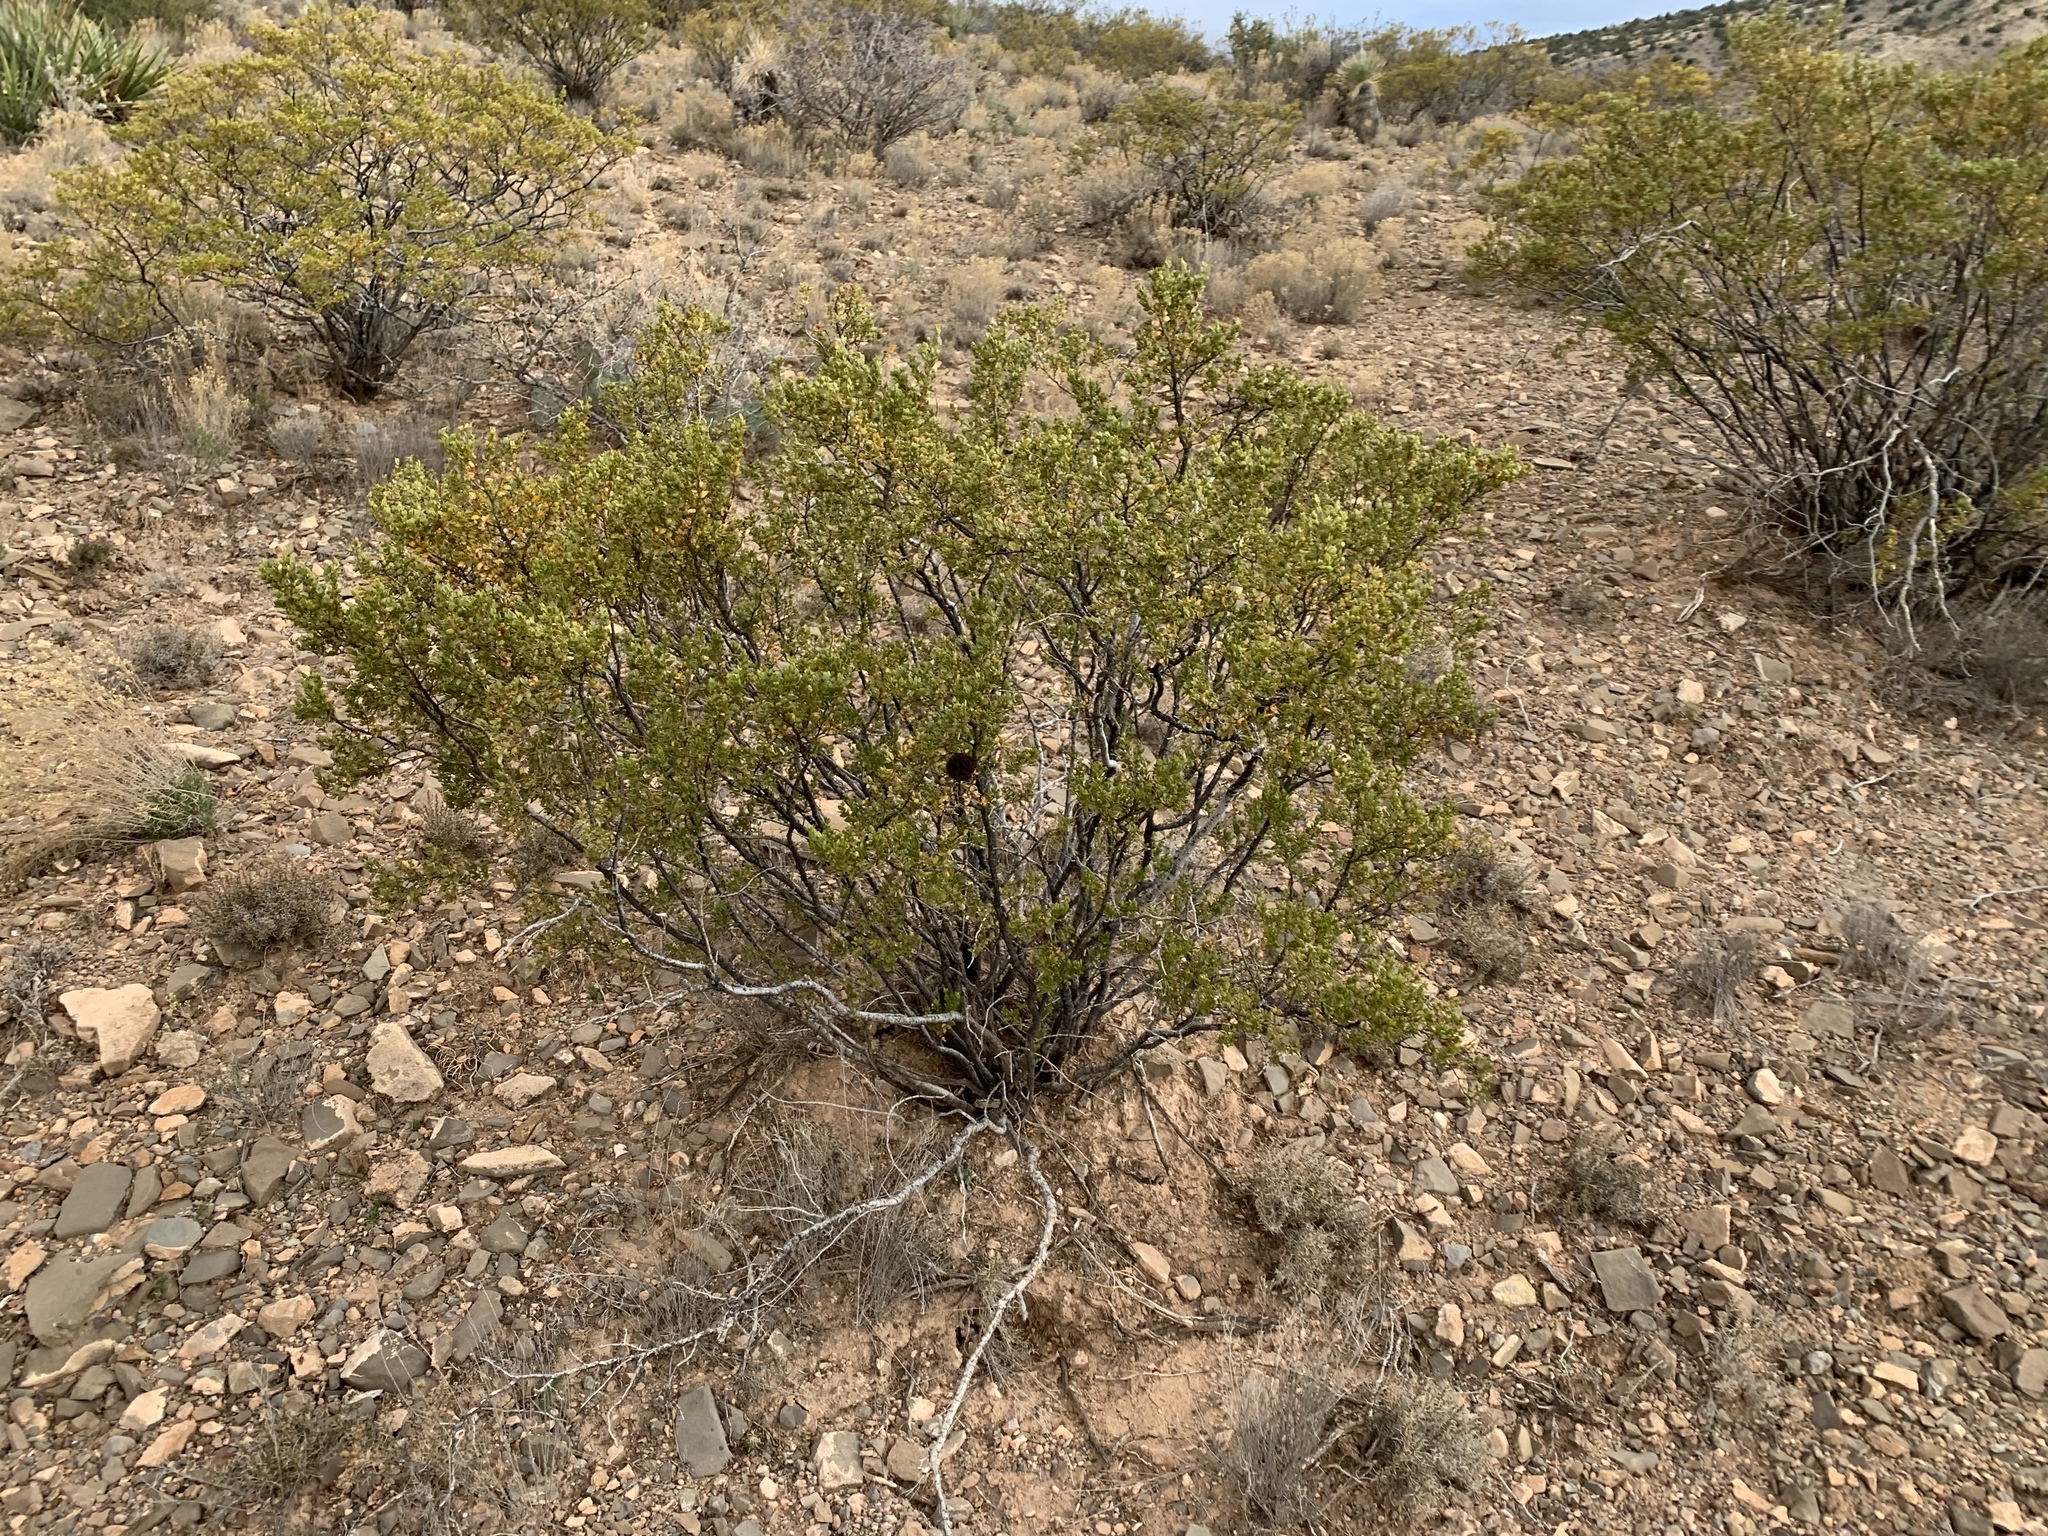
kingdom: Plantae
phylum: Tracheophyta
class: Magnoliopsida
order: Zygophyllales
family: Zygophyllaceae
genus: Larrea
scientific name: Larrea tridentata
